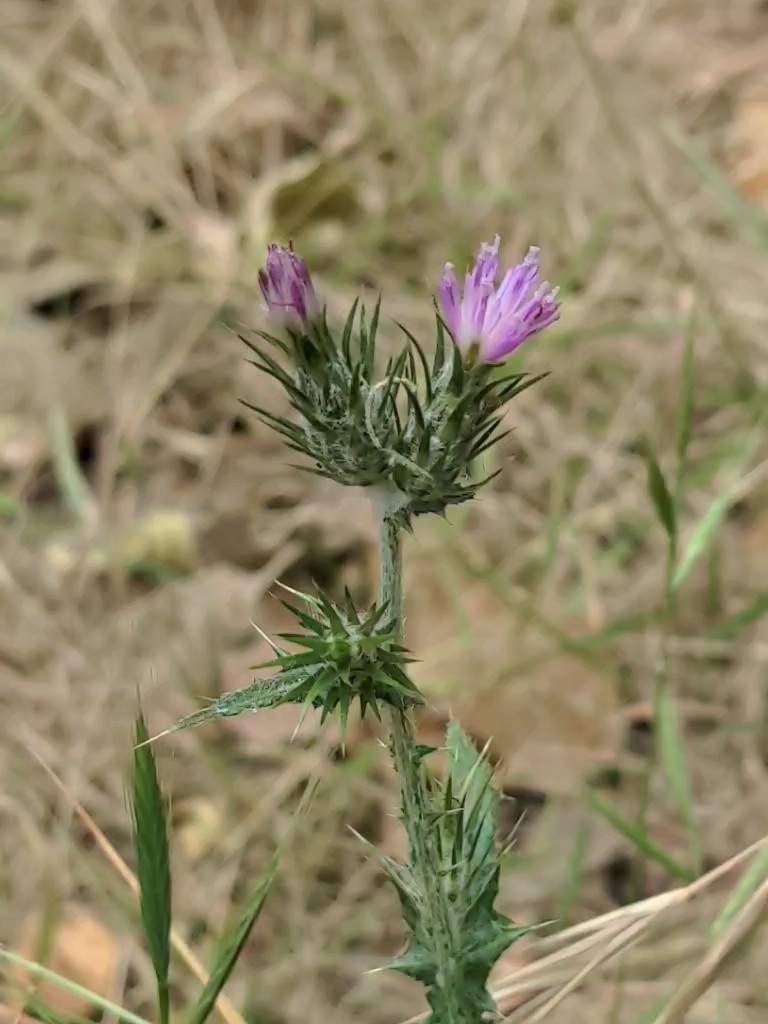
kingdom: Plantae
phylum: Tracheophyta
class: Magnoliopsida
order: Asterales
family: Asteraceae
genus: Carduus
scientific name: Carduus pycnocephalus
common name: Plymouth thistle
